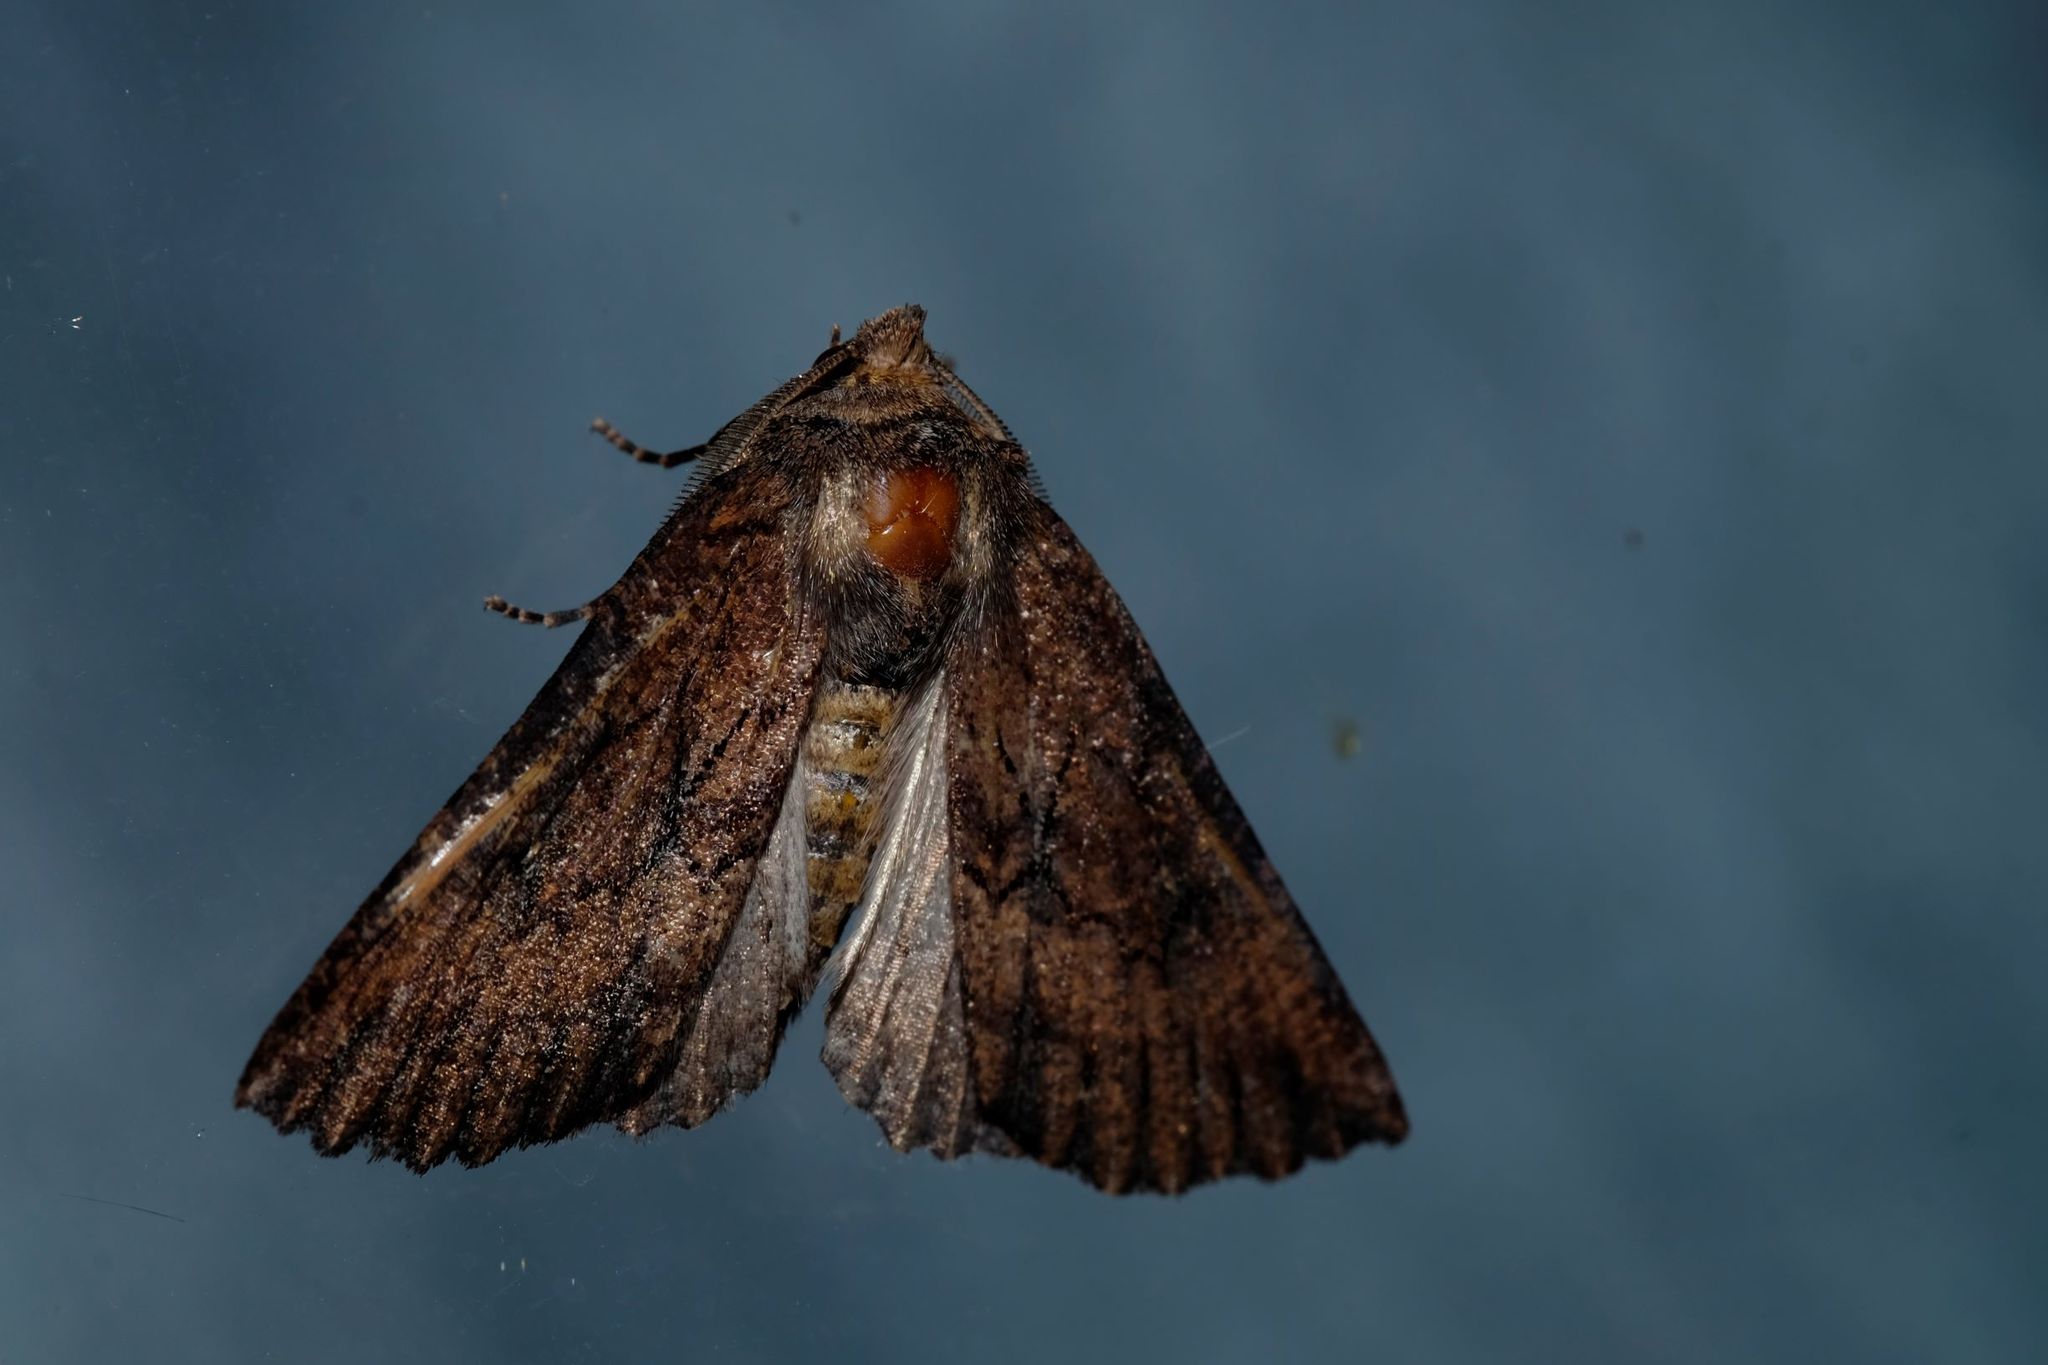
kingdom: Animalia
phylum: Arthropoda
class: Insecta
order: Lepidoptera
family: Geometridae
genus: Nisista
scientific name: Nisista serrata
